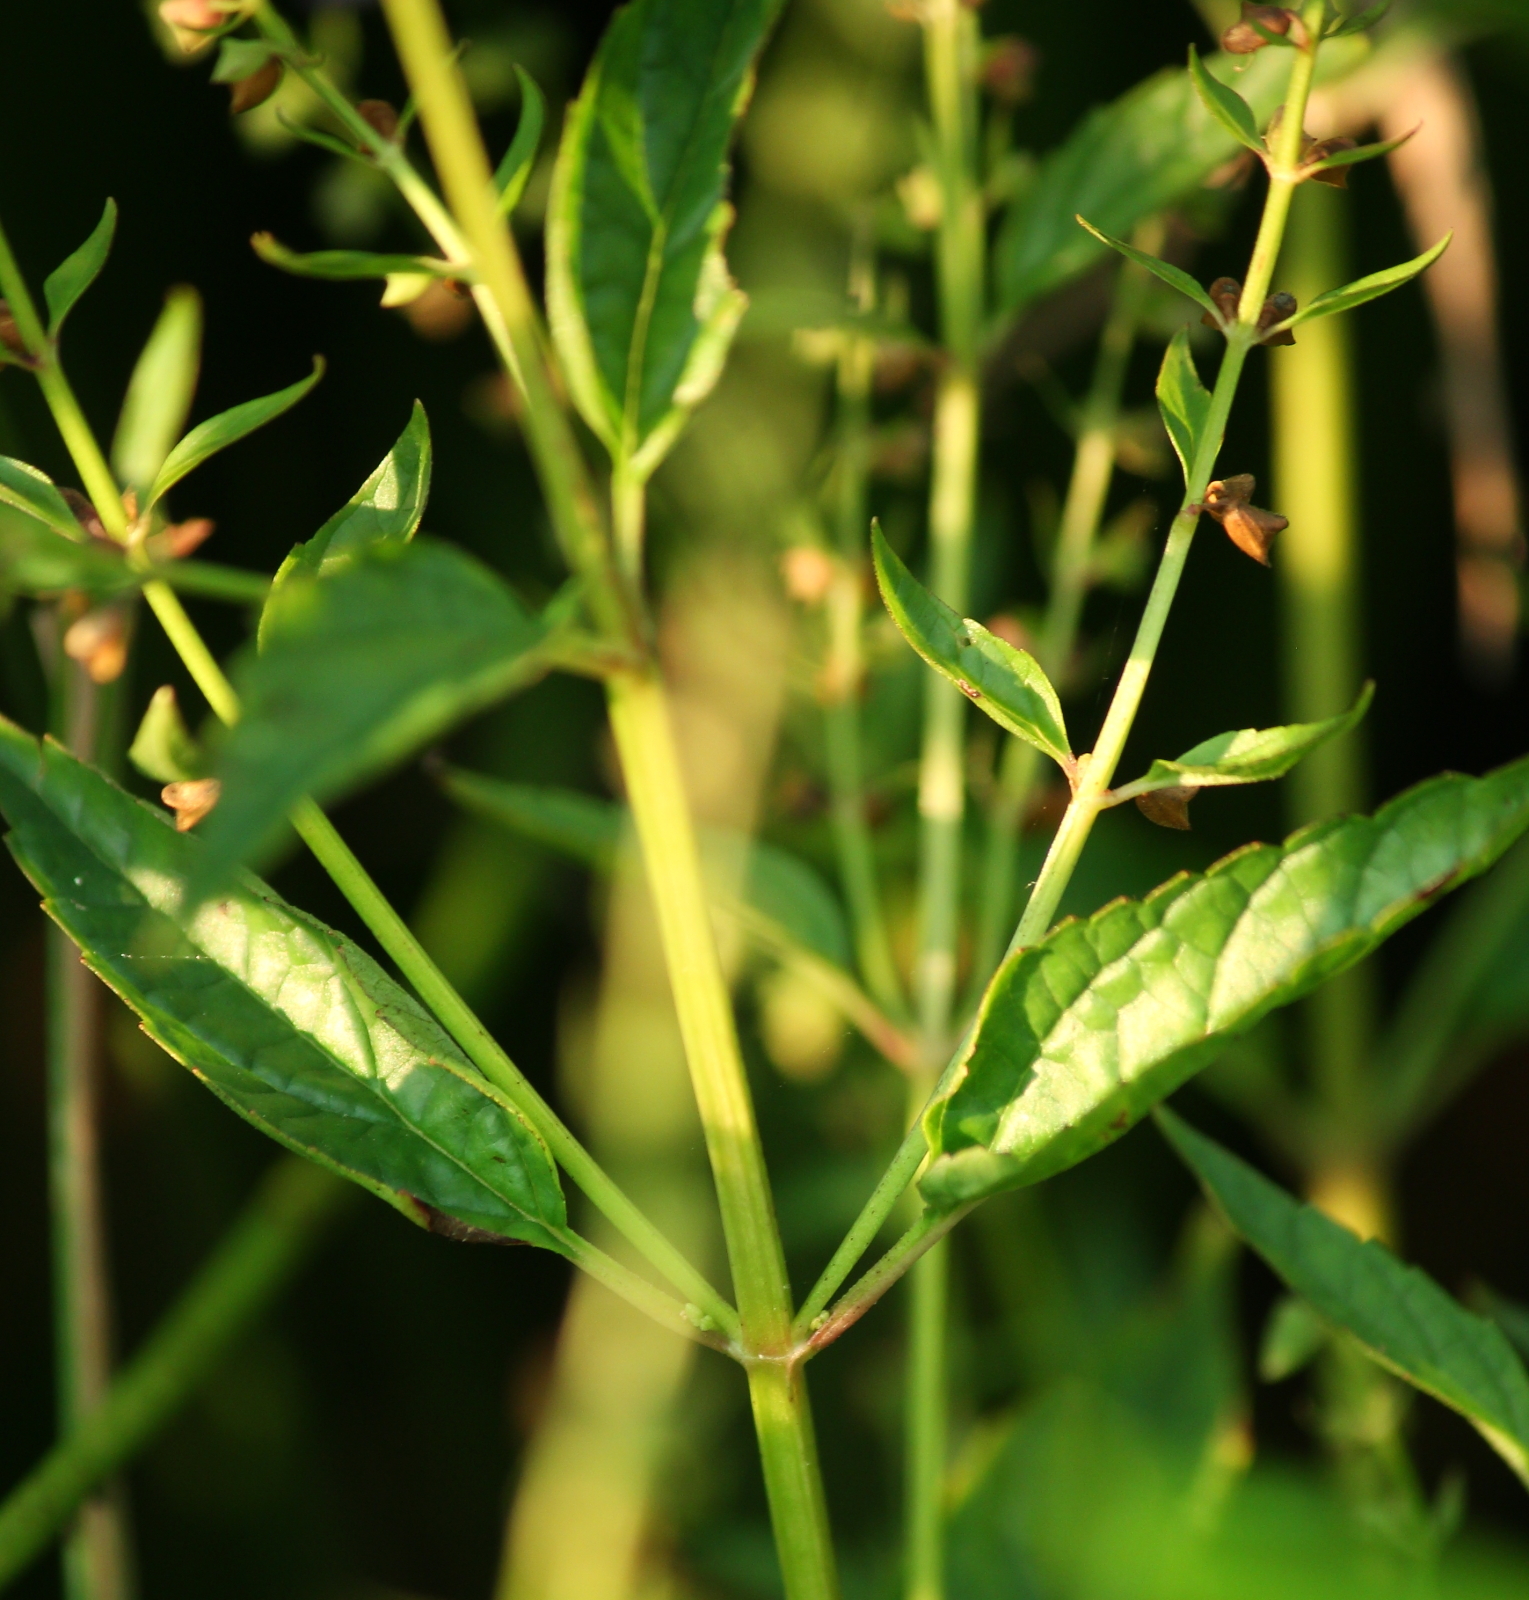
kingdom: Plantae
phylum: Tracheophyta
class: Magnoliopsida
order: Lamiales
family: Lamiaceae
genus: Scutellaria
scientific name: Scutellaria lateriflora
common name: Blue skullcap
